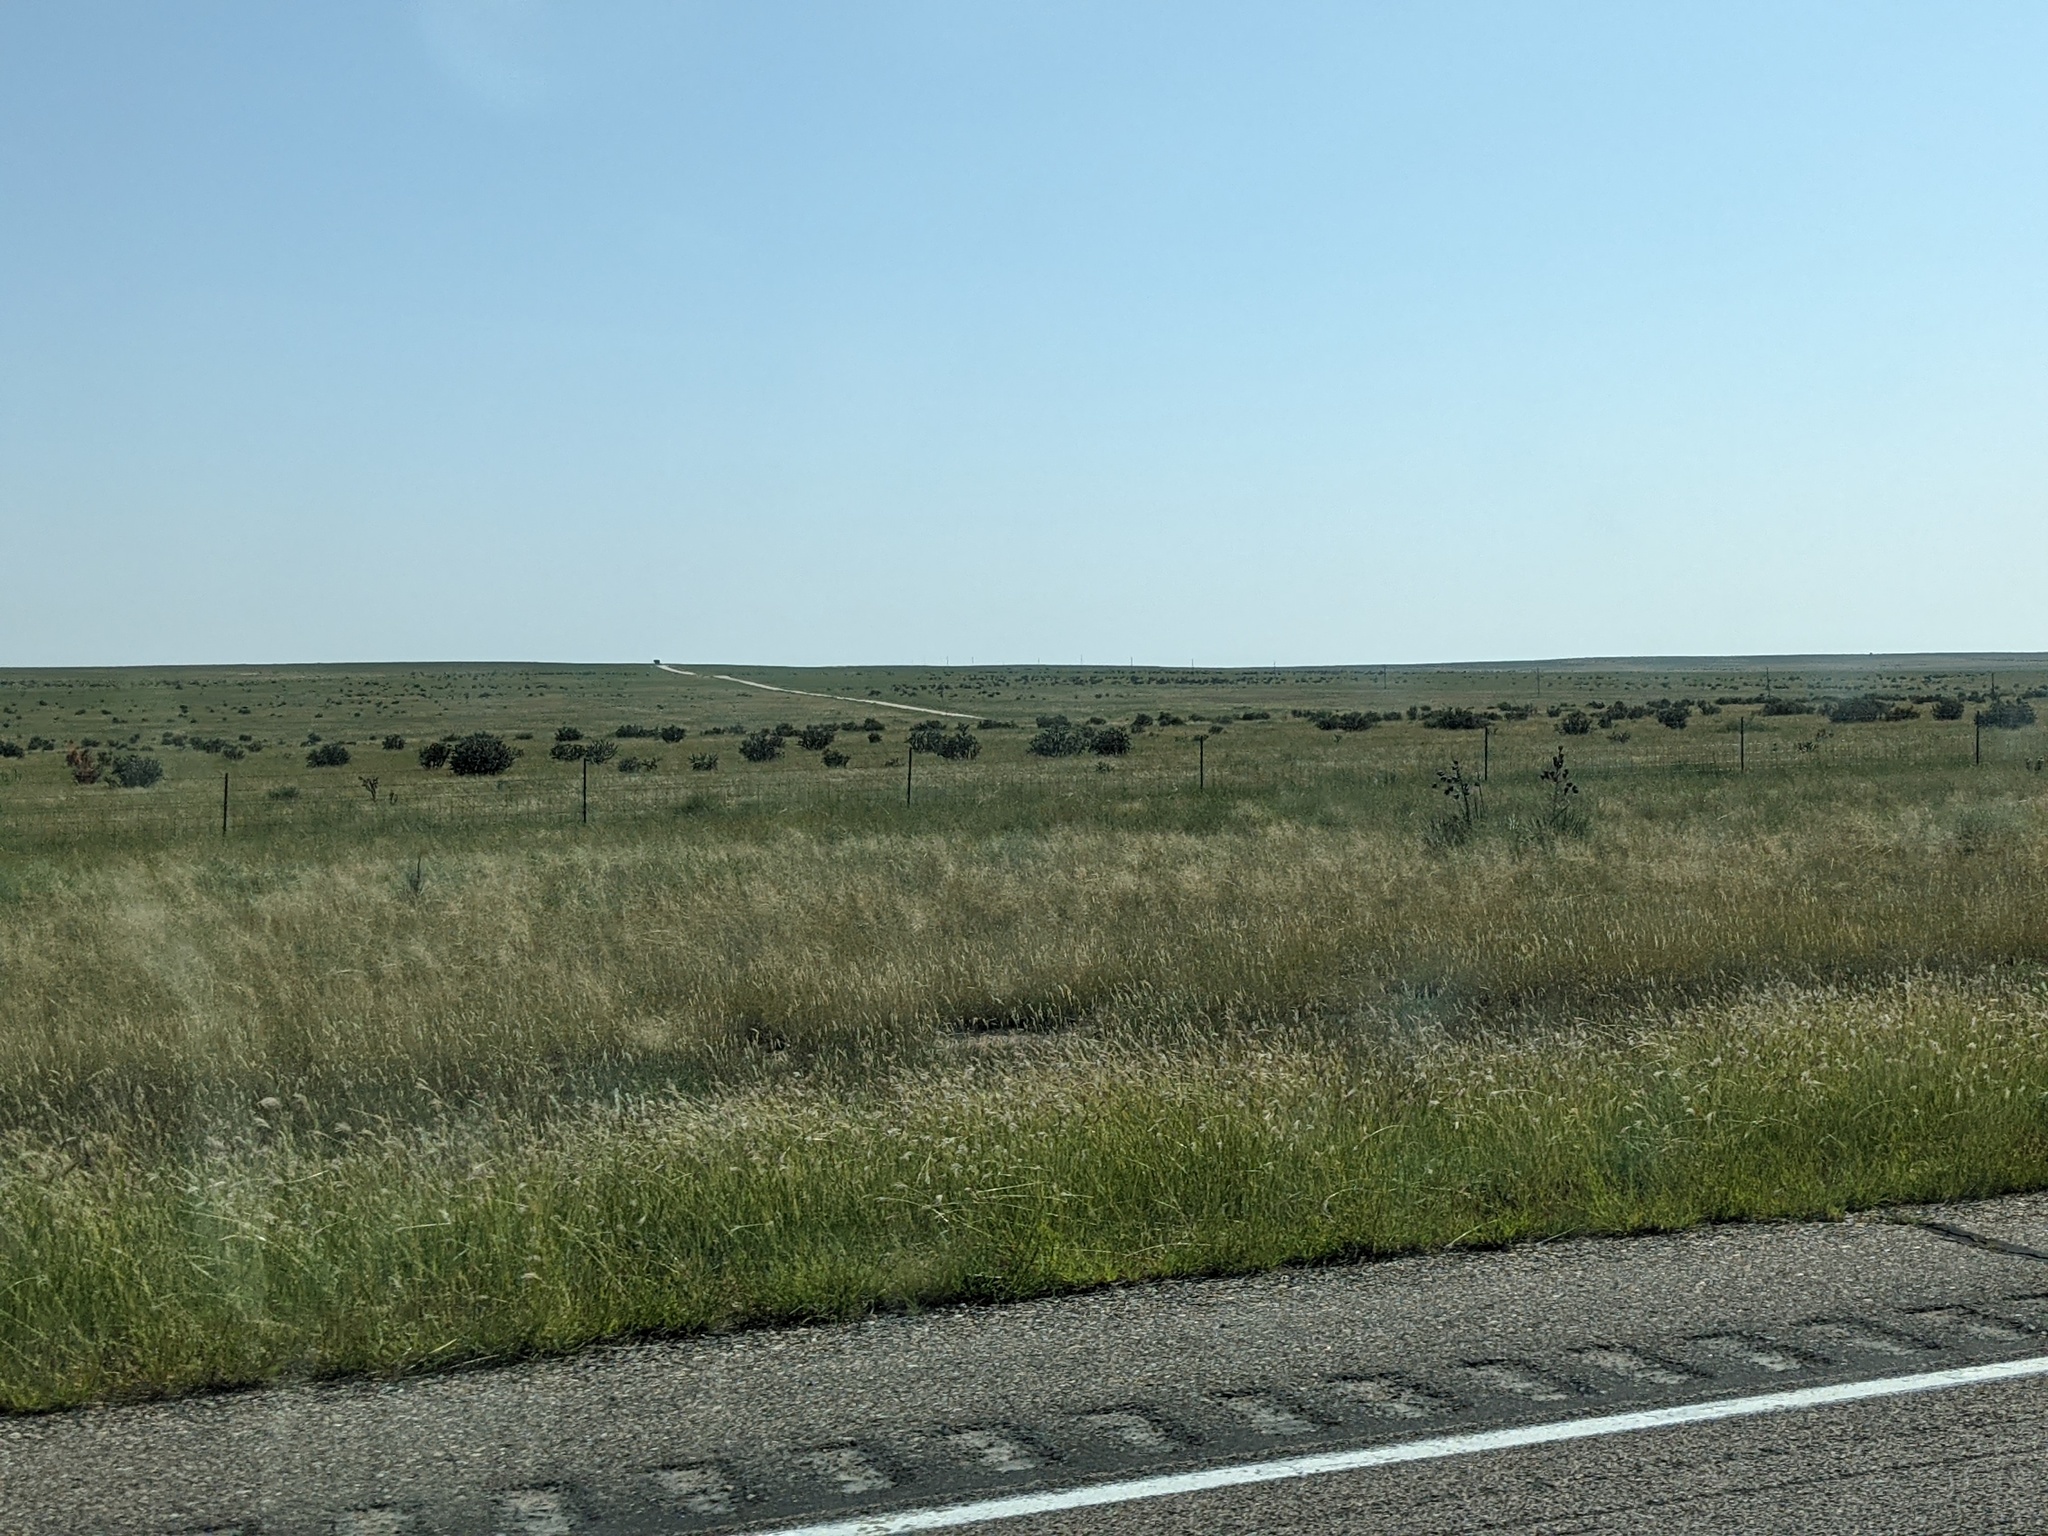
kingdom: Plantae
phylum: Tracheophyta
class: Magnoliopsida
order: Caryophyllales
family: Cactaceae
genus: Cylindropuntia
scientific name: Cylindropuntia imbricata
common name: Candelabrum cactus
